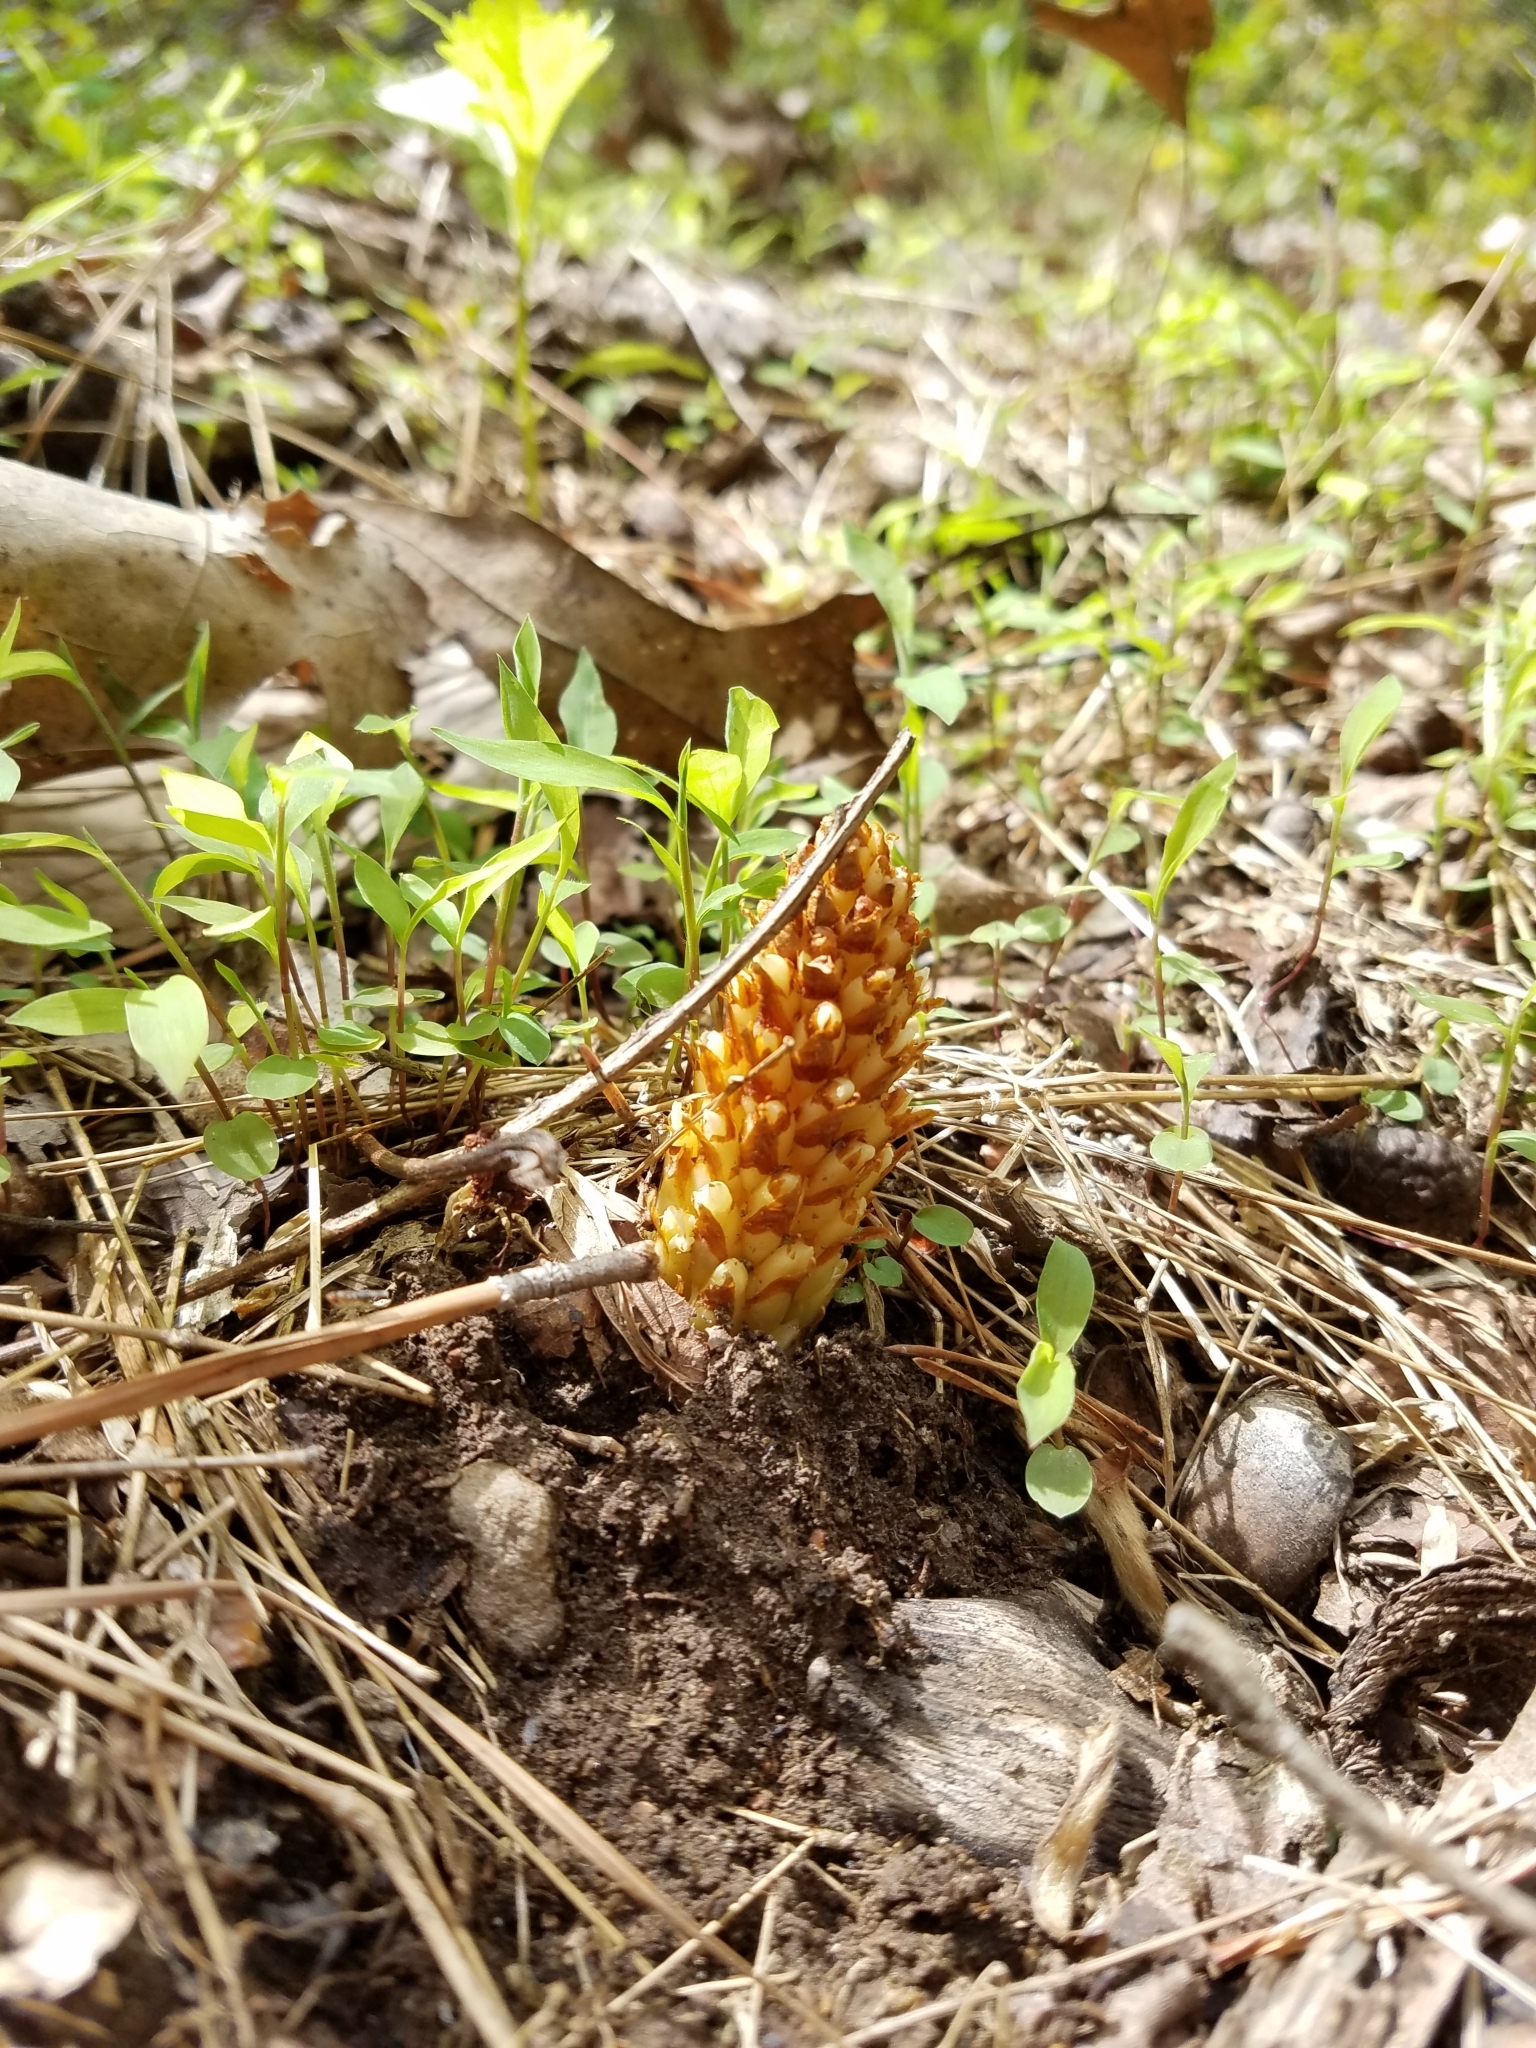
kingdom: Plantae
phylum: Tracheophyta
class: Magnoliopsida
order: Lamiales
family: Orobanchaceae
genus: Conopholis
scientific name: Conopholis americana
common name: American cancer-root
